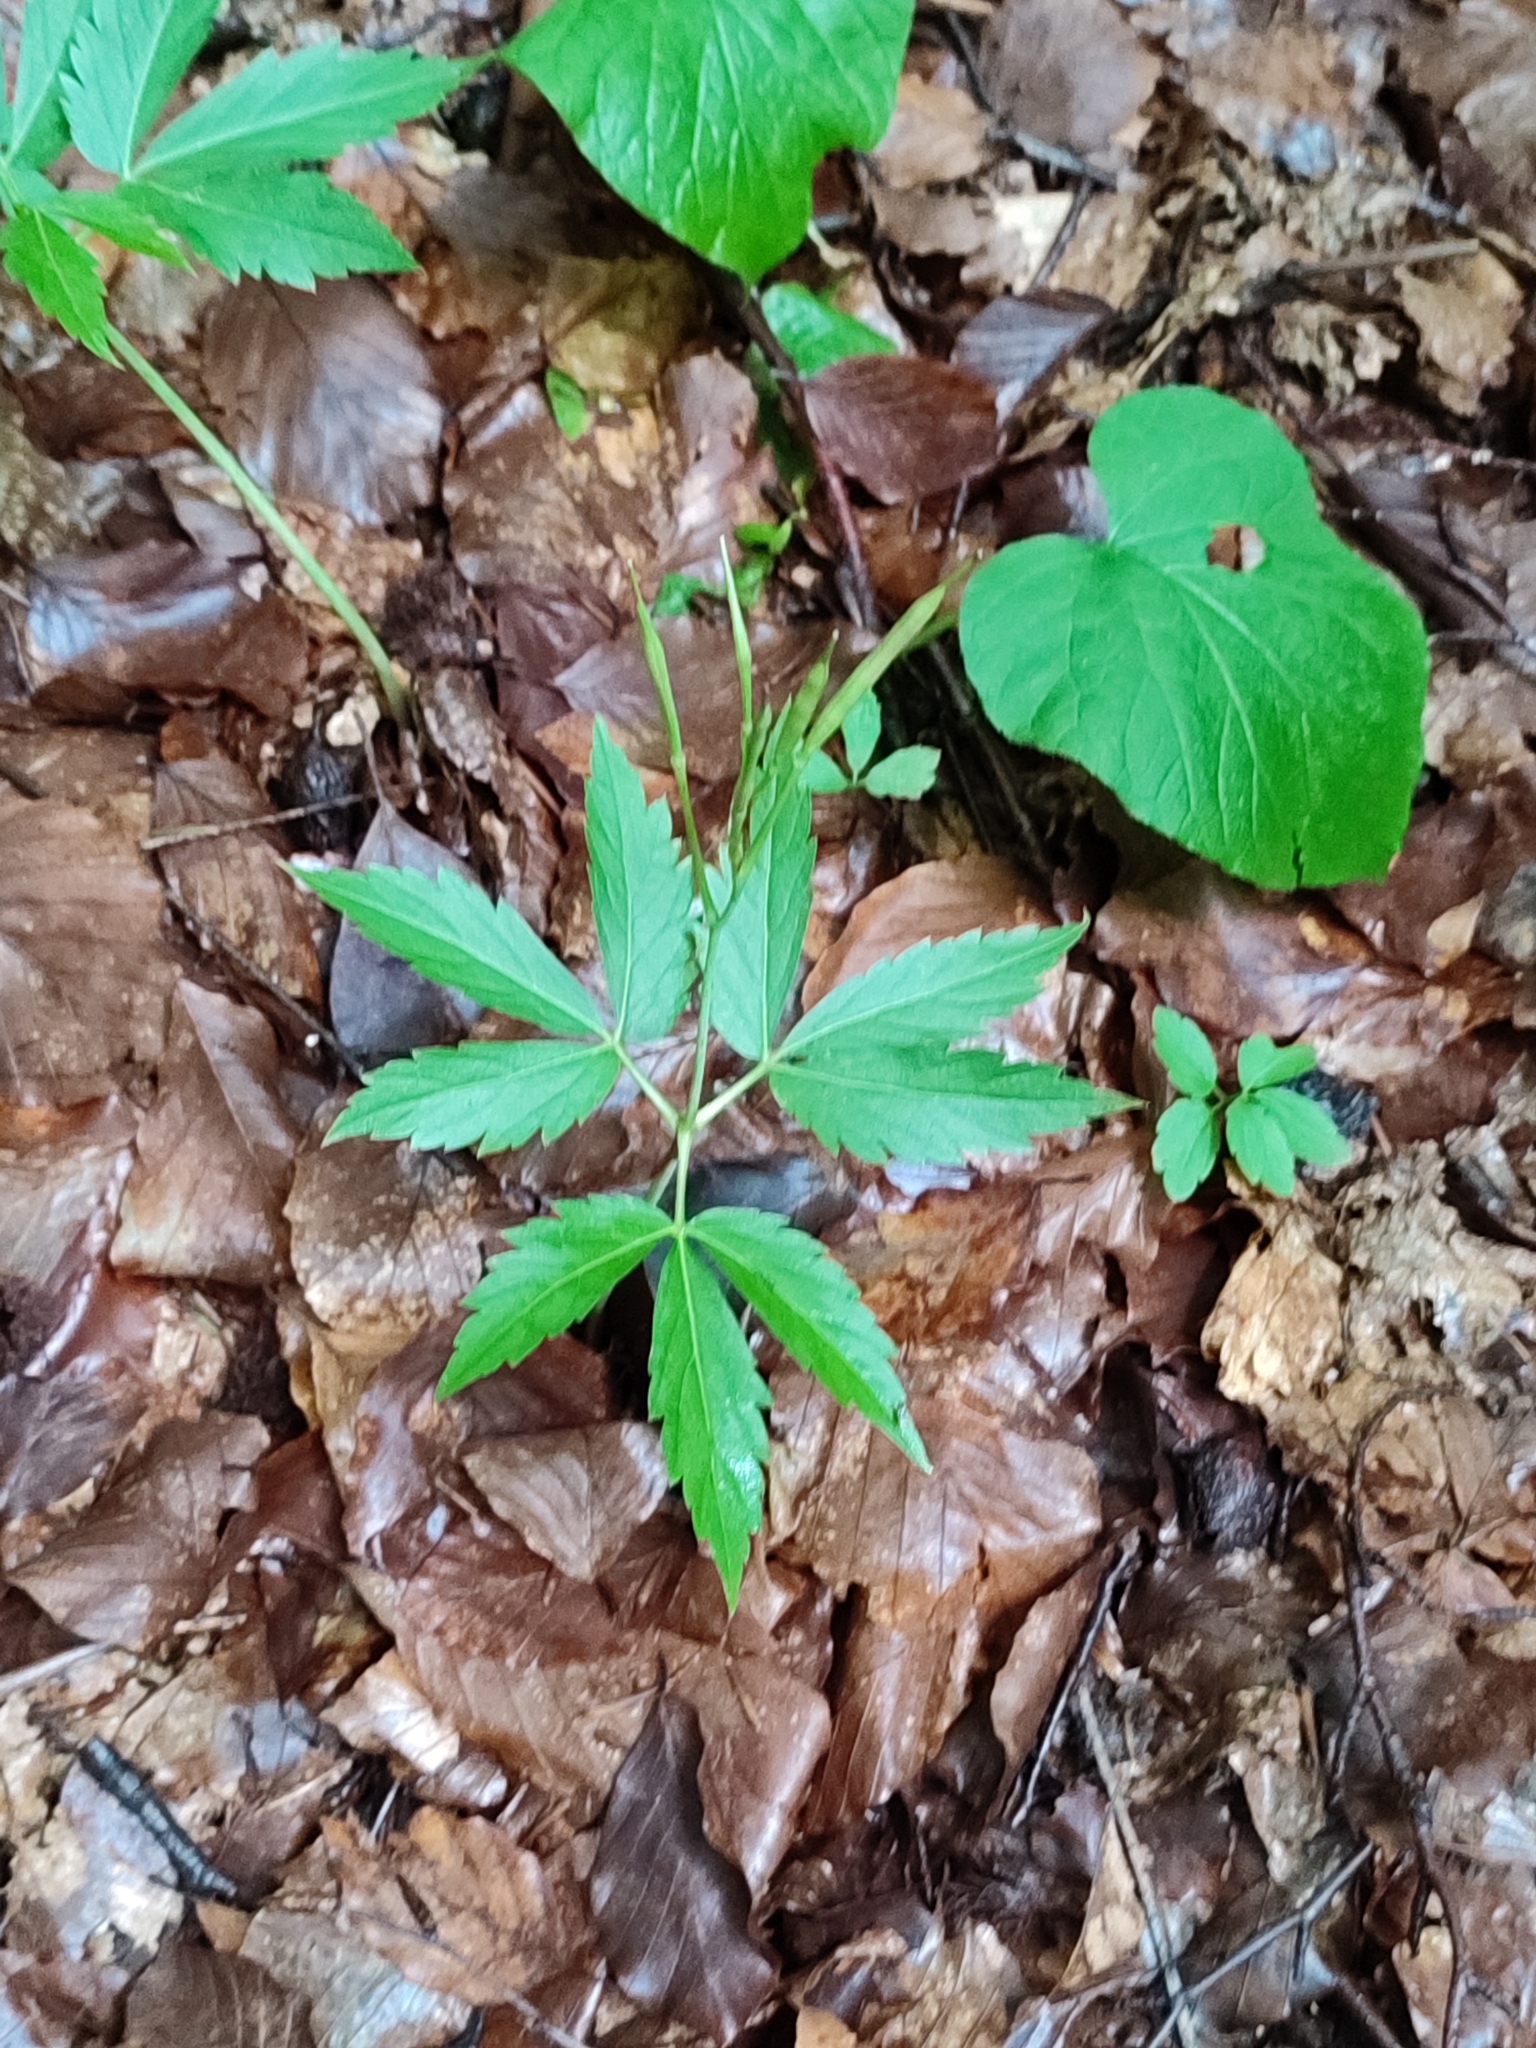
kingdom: Plantae
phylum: Tracheophyta
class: Magnoliopsida
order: Brassicales
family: Brassicaceae
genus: Cardamine
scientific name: Cardamine glanduligera
